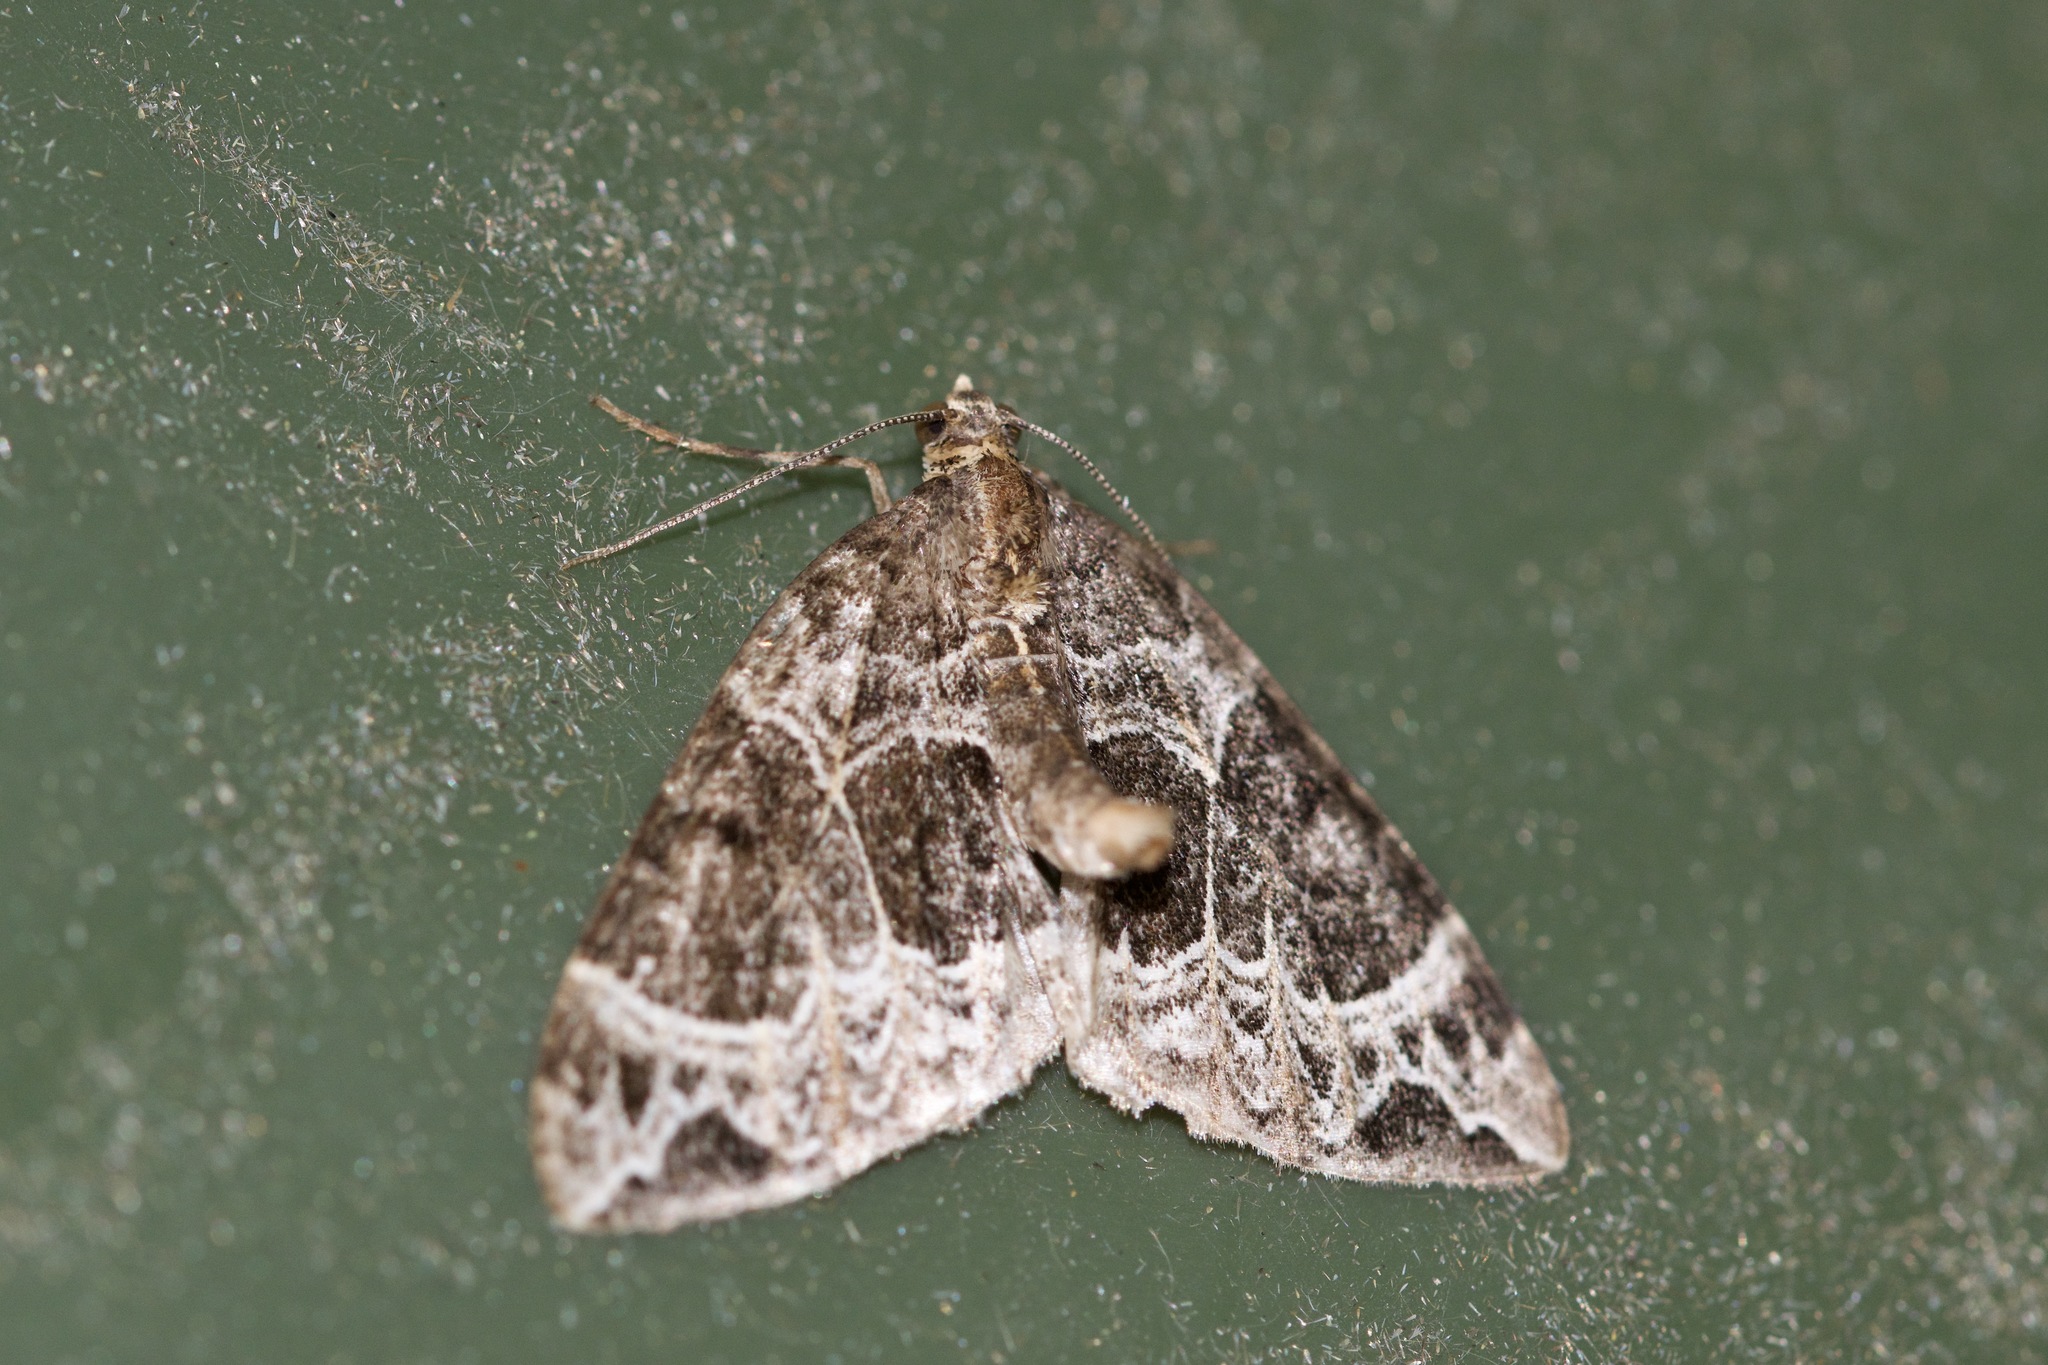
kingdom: Animalia
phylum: Arthropoda
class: Insecta
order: Lepidoptera
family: Geometridae
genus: Ecliptopera
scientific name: Ecliptopera silaceata
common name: Small phoenix
